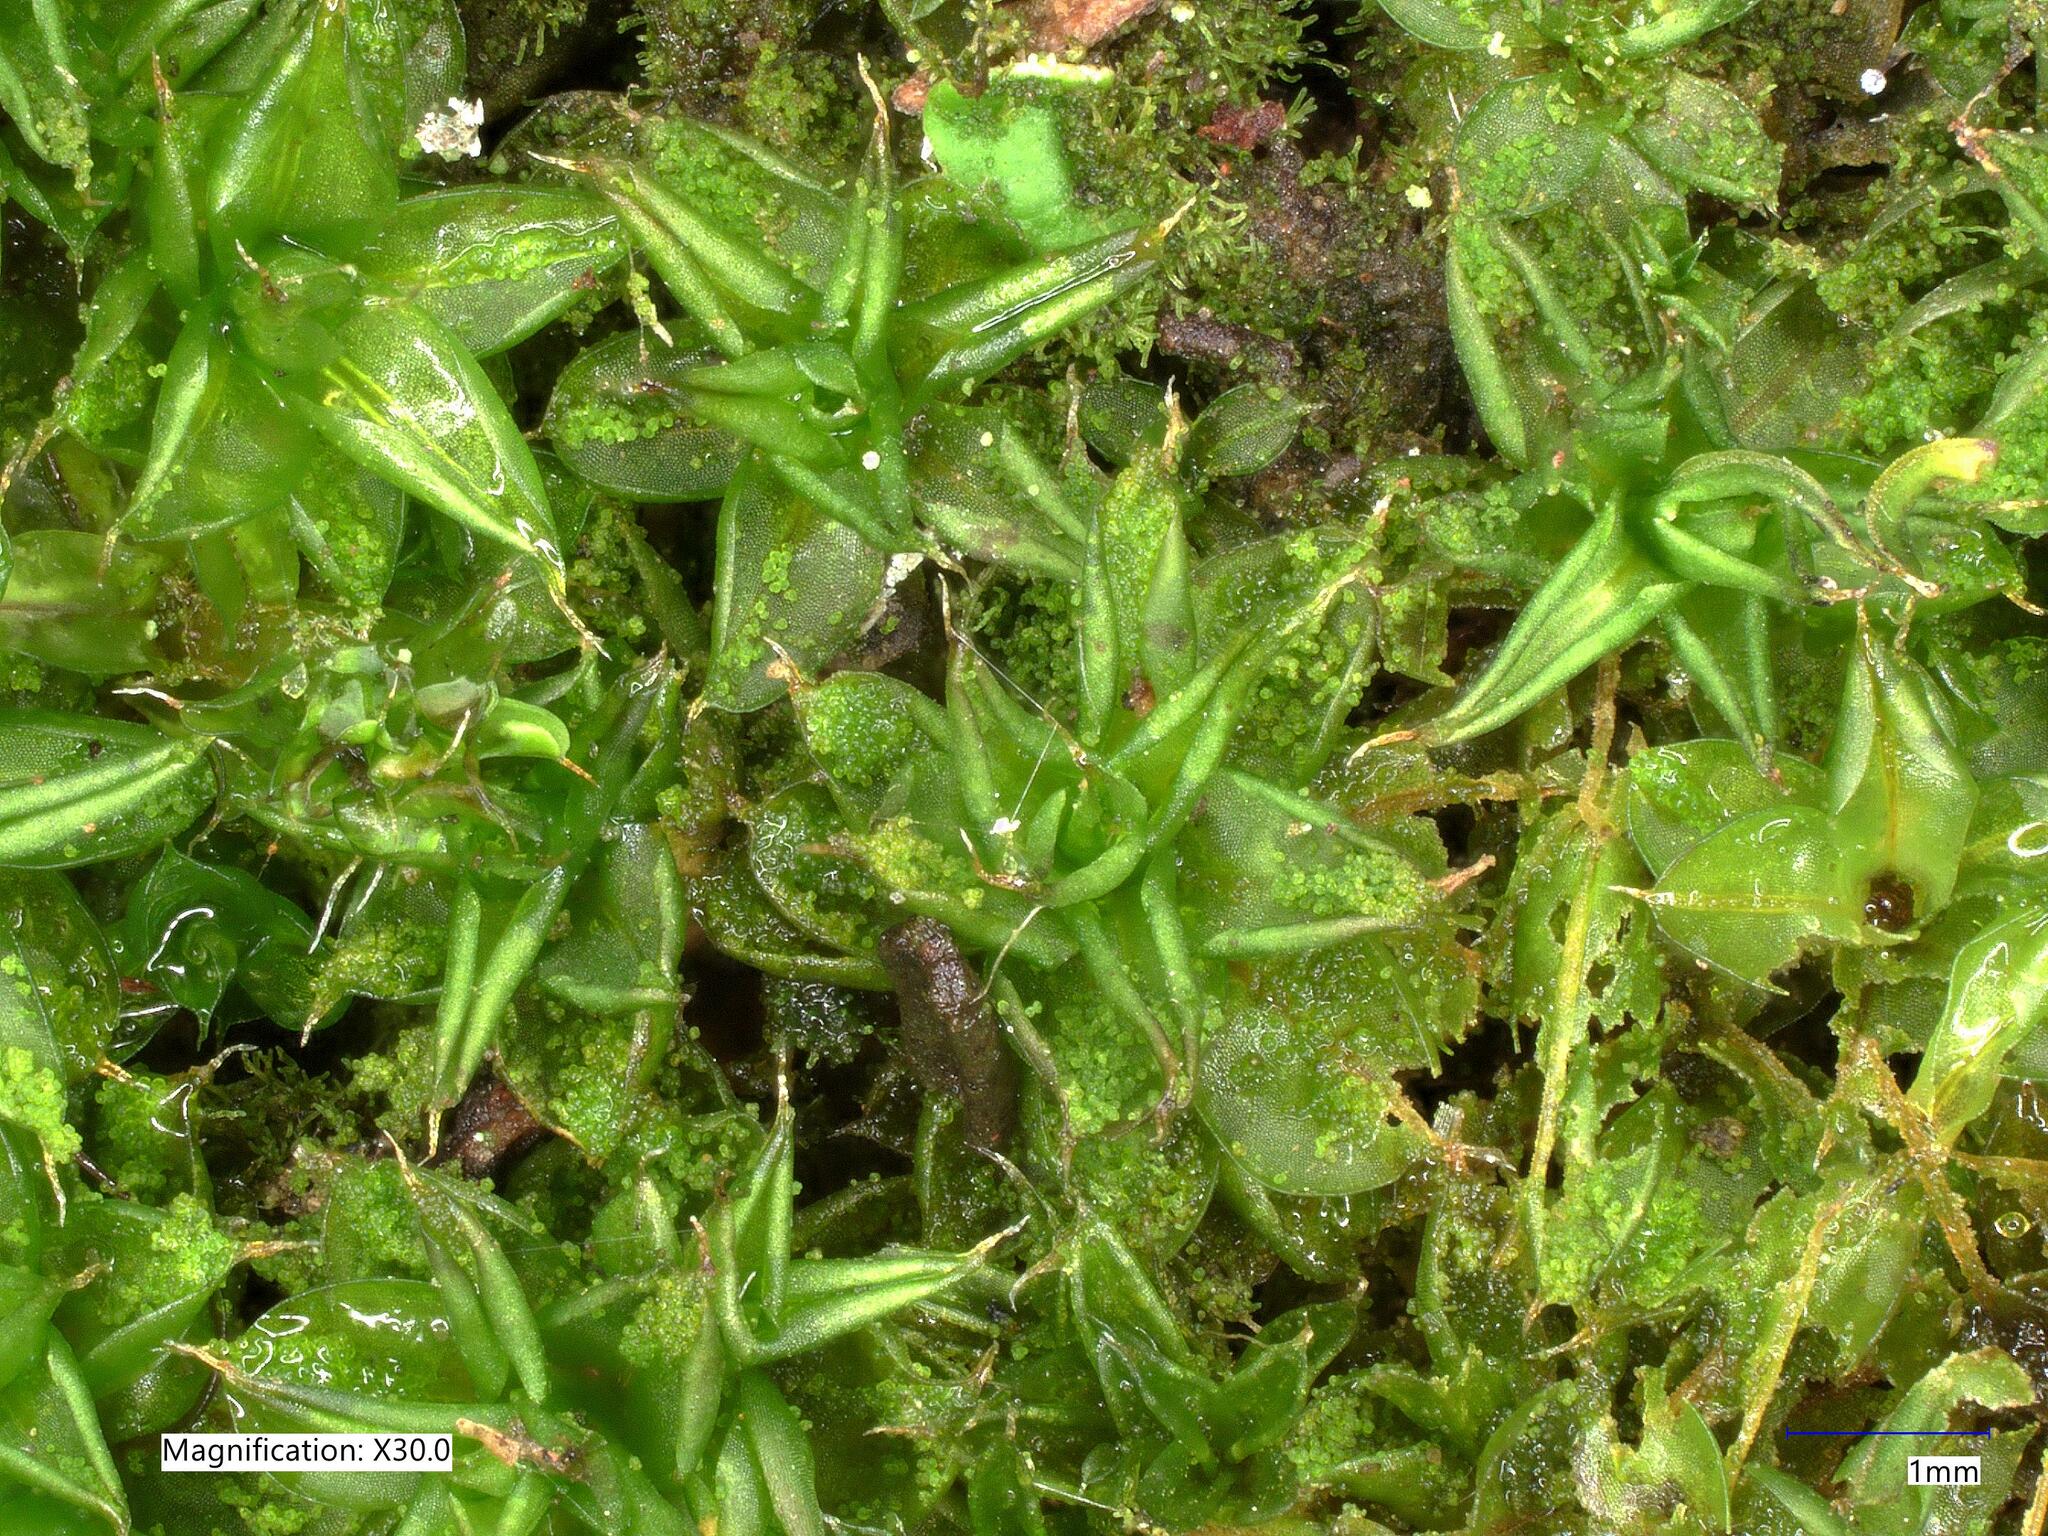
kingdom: Plantae
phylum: Bryophyta
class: Bryopsida
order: Pottiales
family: Pottiaceae
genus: Syntrichia
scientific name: Syntrichia papillosa
